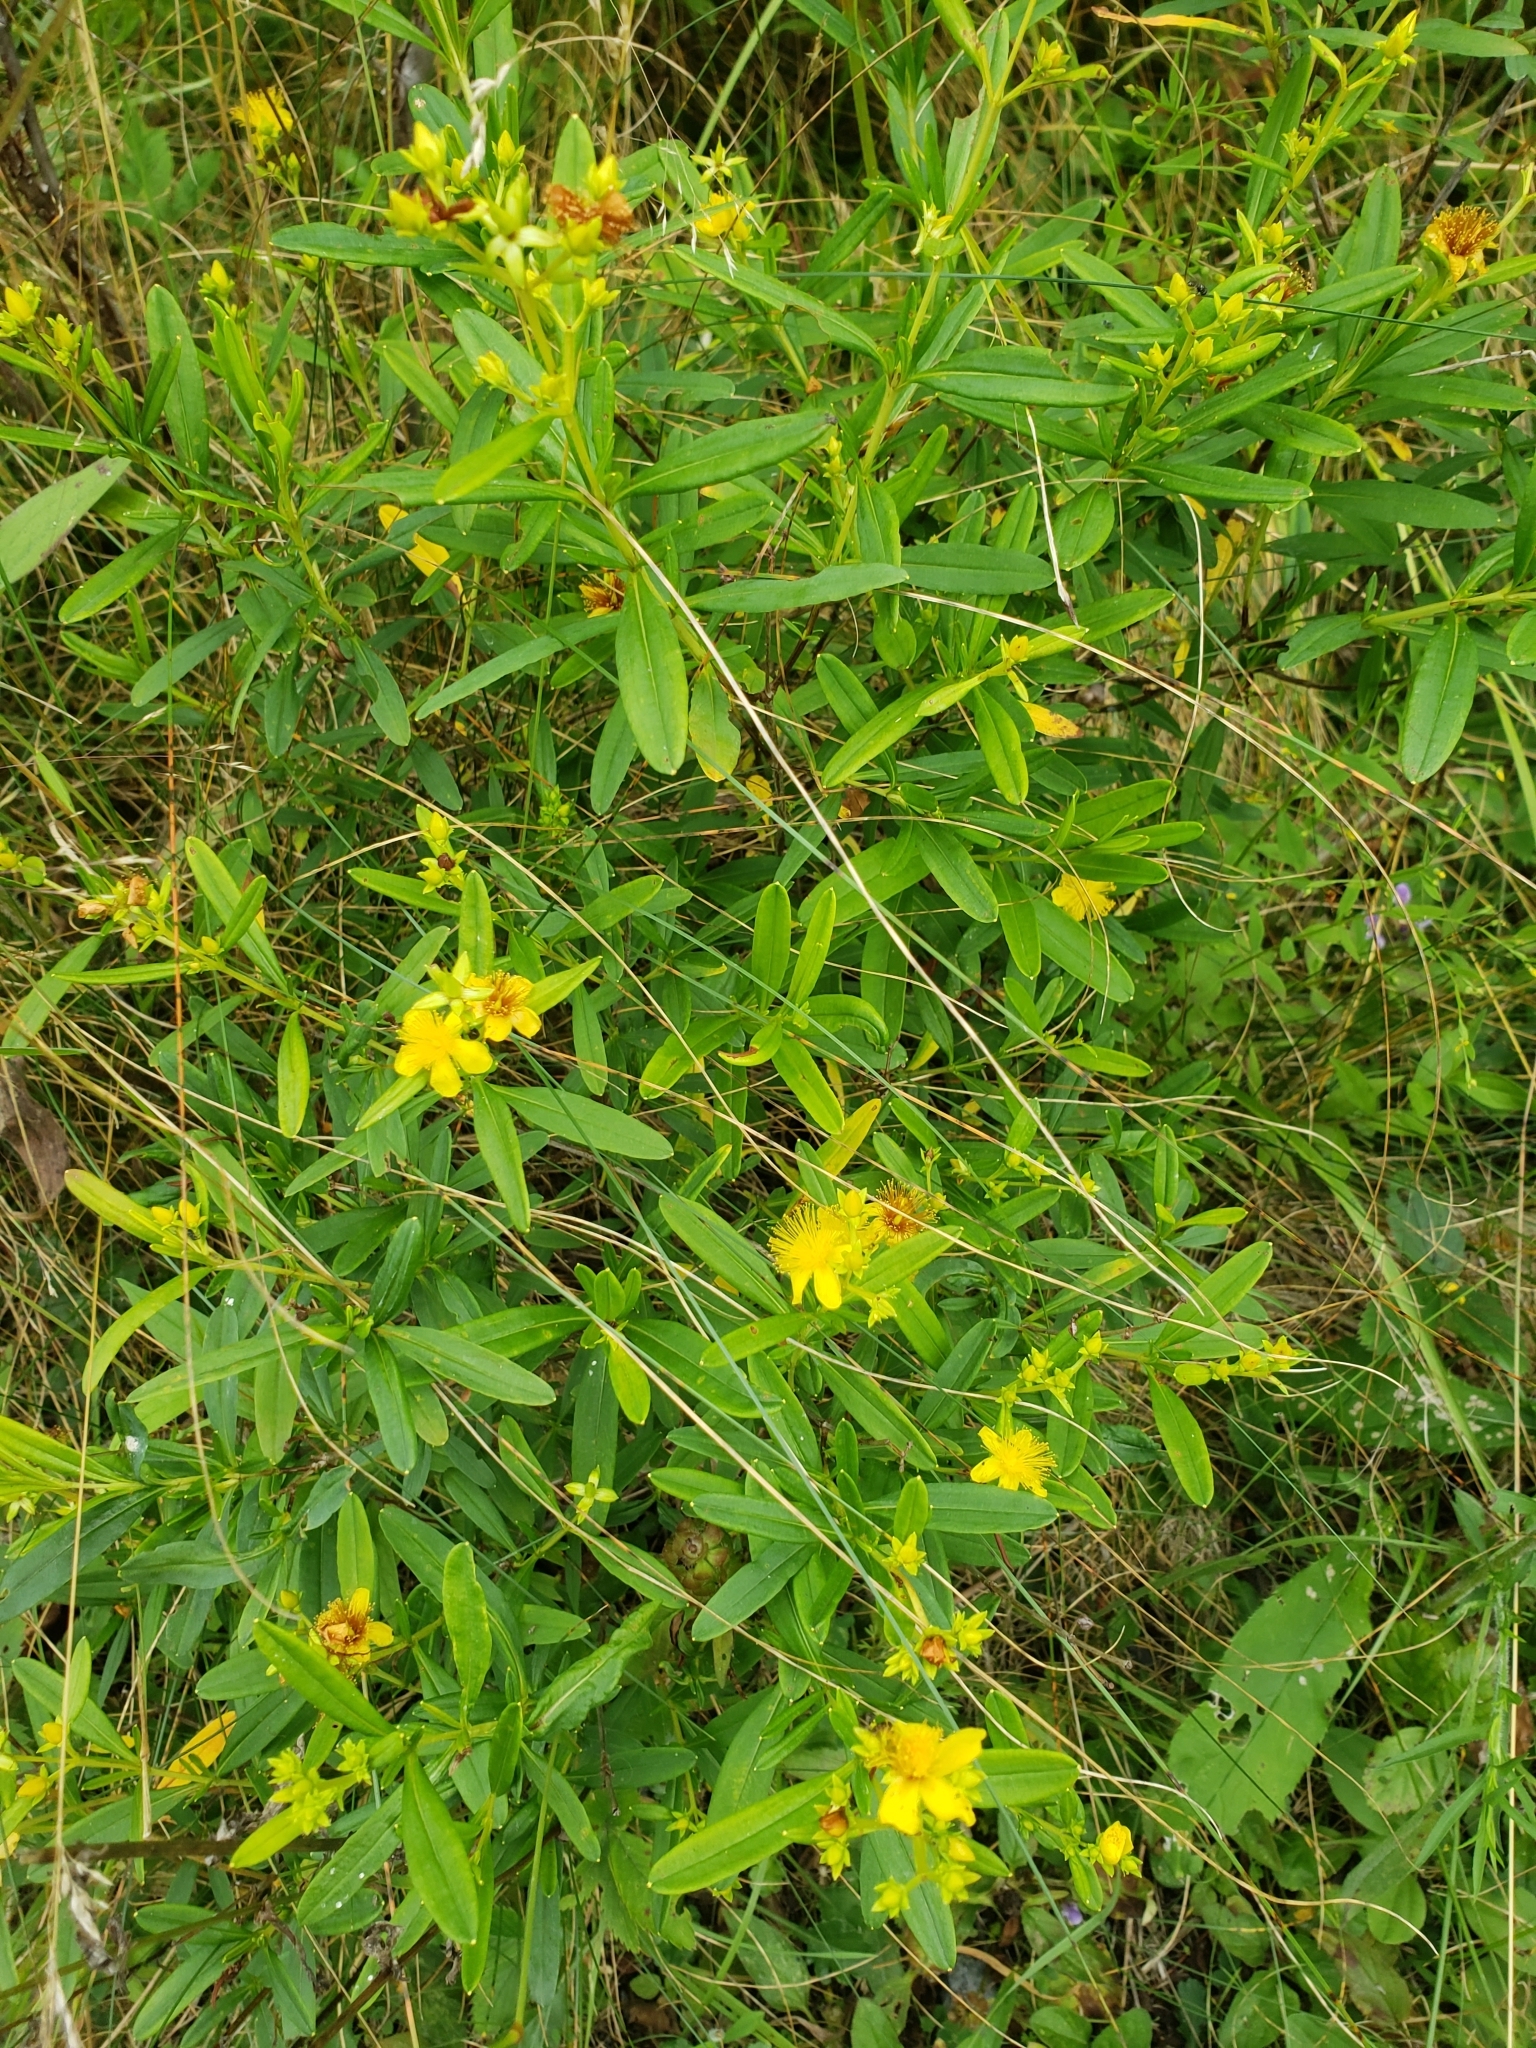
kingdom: Plantae
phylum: Tracheophyta
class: Magnoliopsida
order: Malpighiales
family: Hypericaceae
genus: Hypericum
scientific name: Hypericum prolificum
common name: Shrubby st. john's-wort
